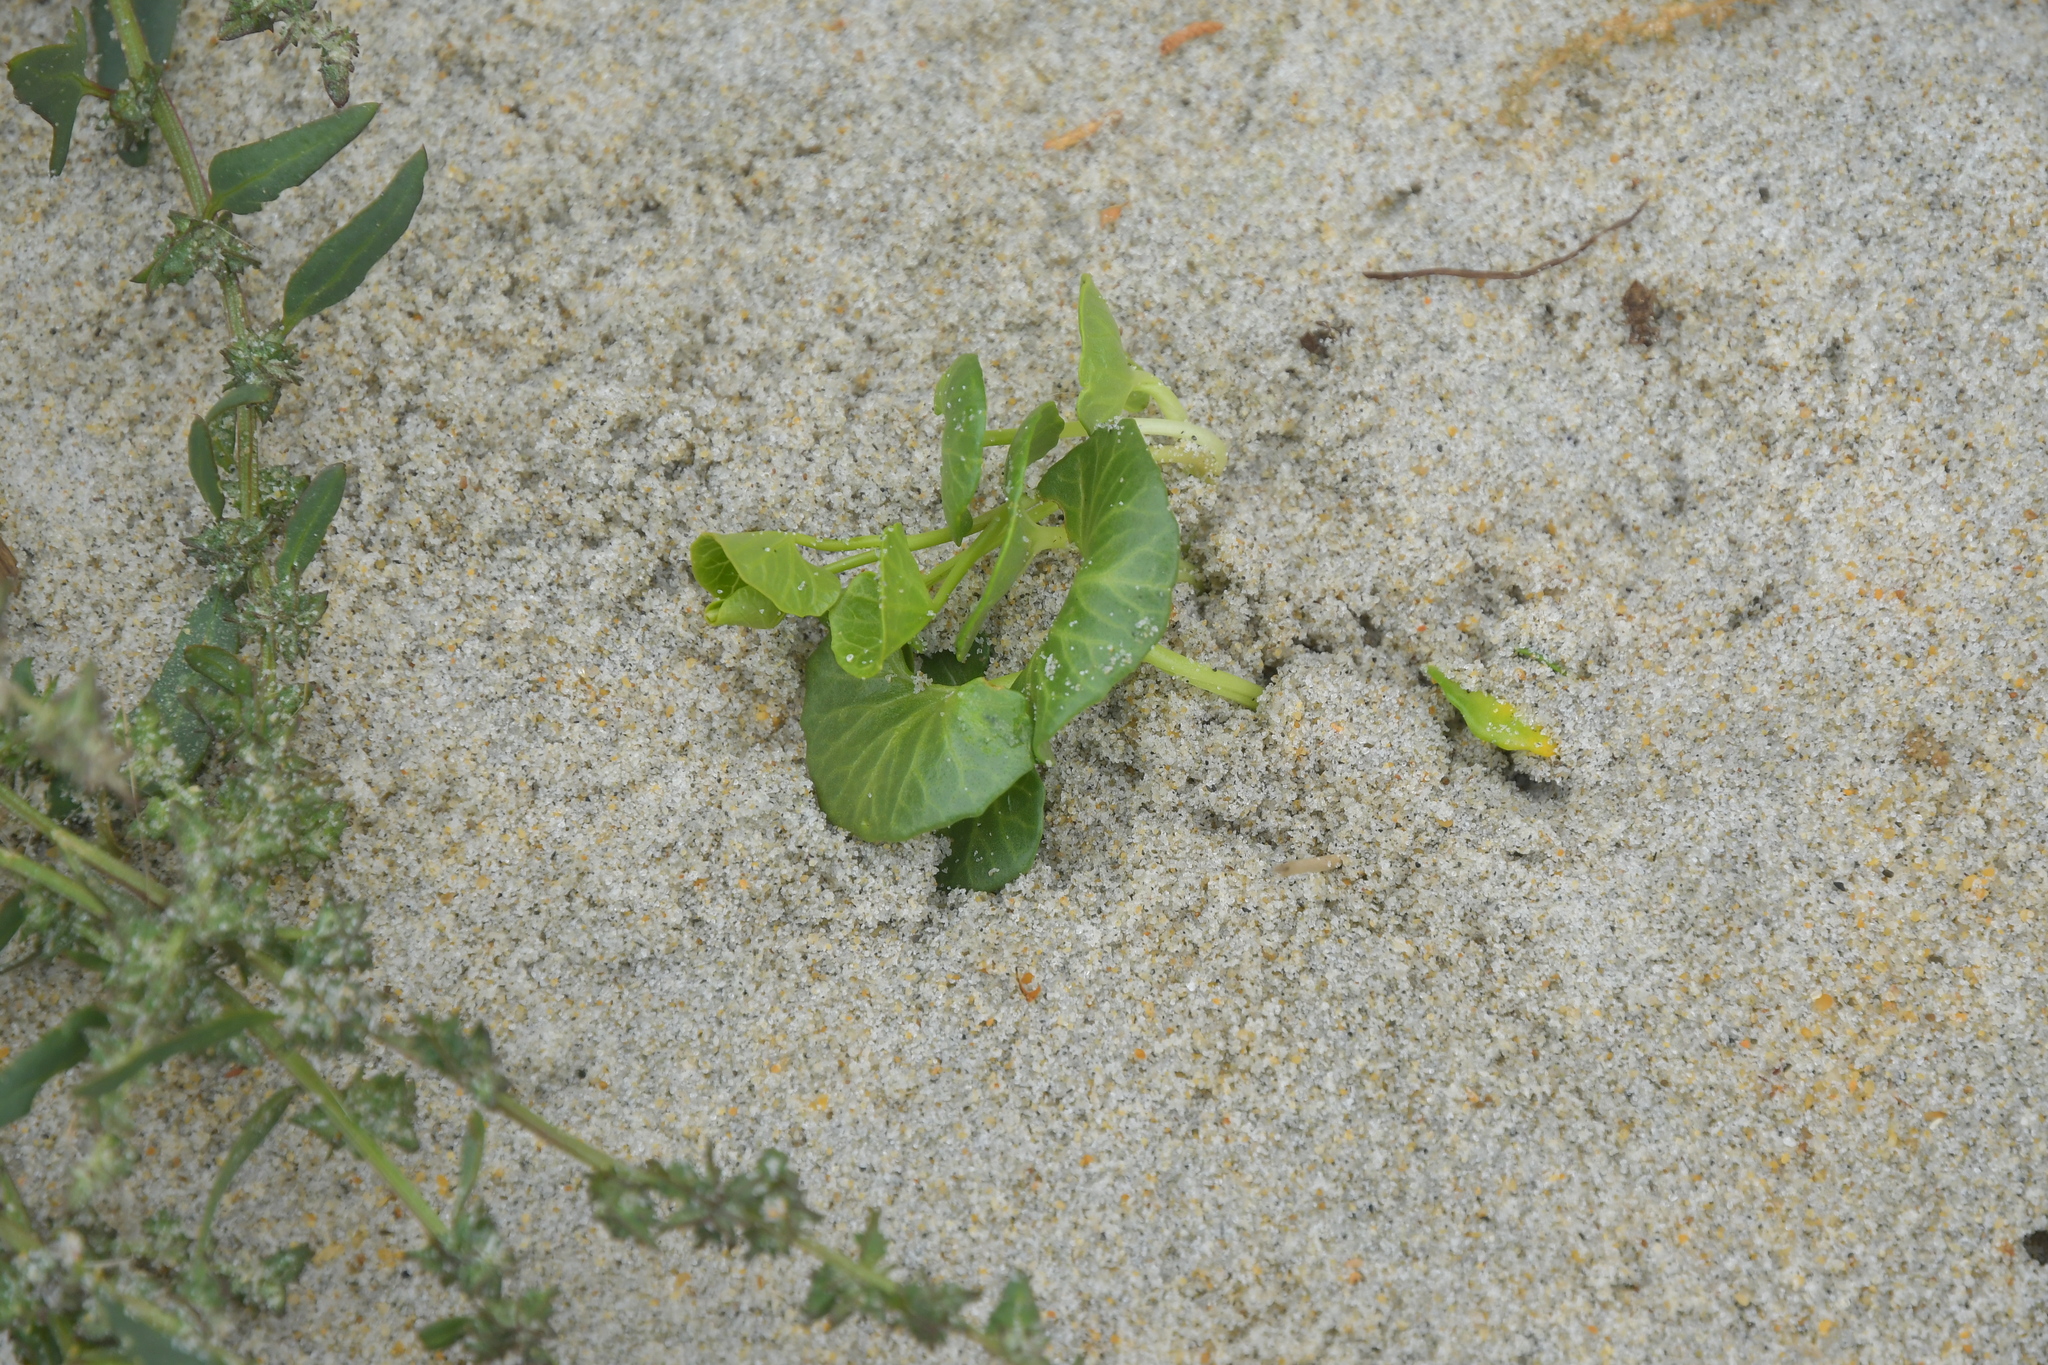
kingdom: Plantae
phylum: Tracheophyta
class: Magnoliopsida
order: Solanales
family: Convolvulaceae
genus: Calystegia
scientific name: Calystegia soldanella
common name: Sea bindweed
